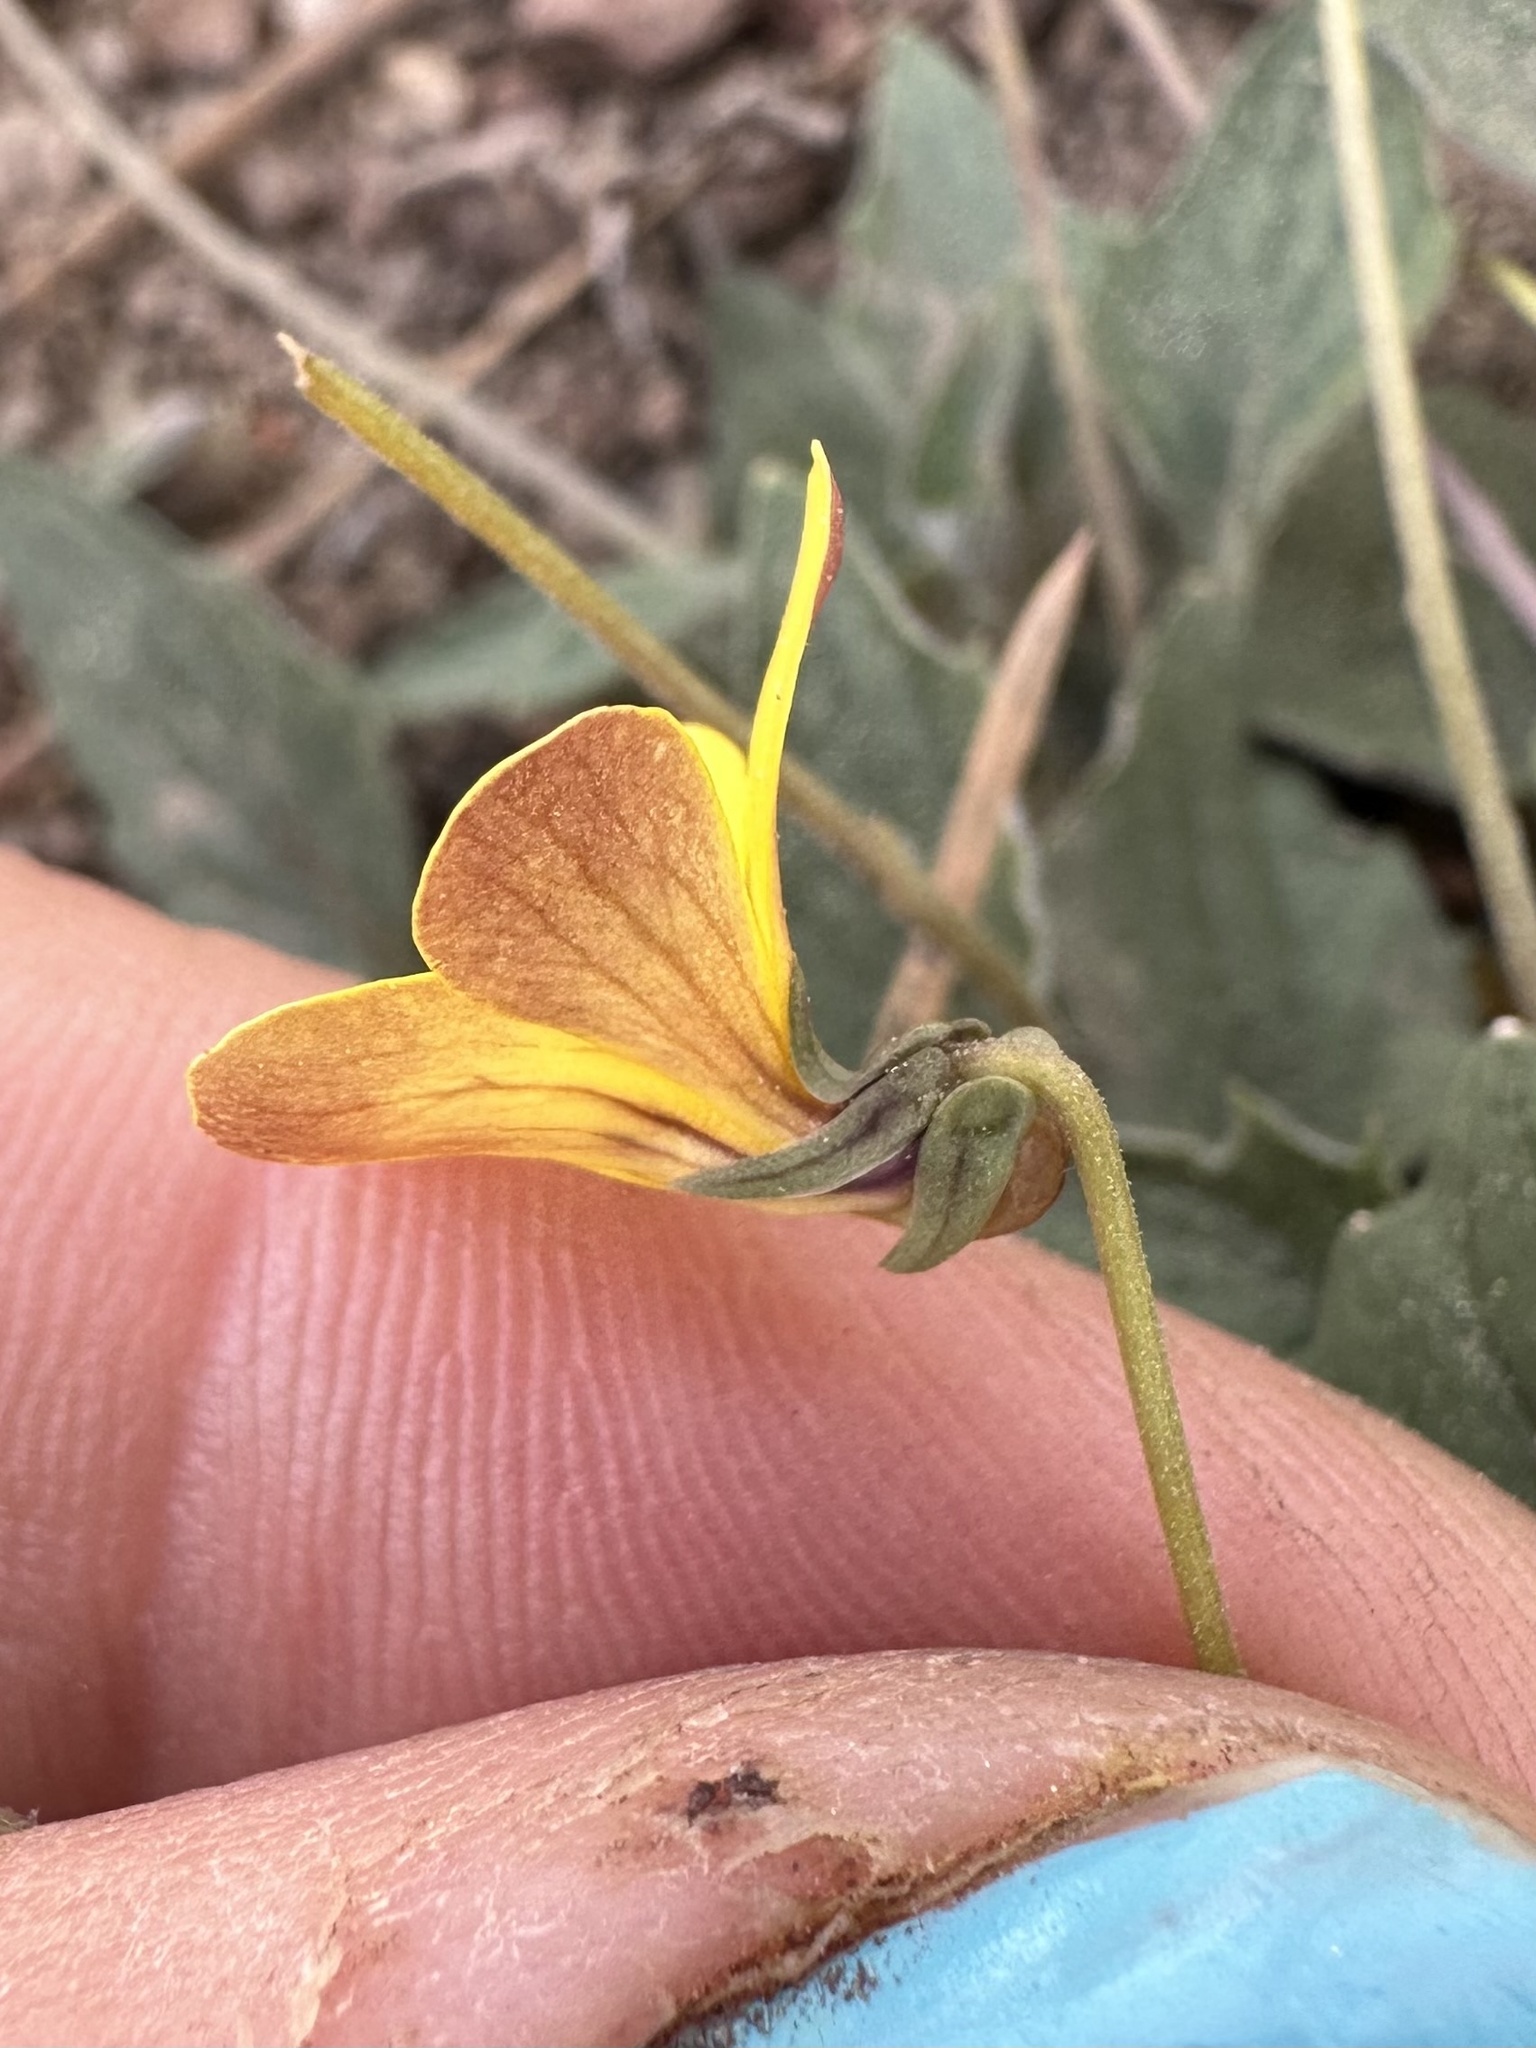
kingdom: Plantae
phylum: Tracheophyta
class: Magnoliopsida
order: Malpighiales
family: Violaceae
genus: Viola
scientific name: Viola purpurea
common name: Pine violet
